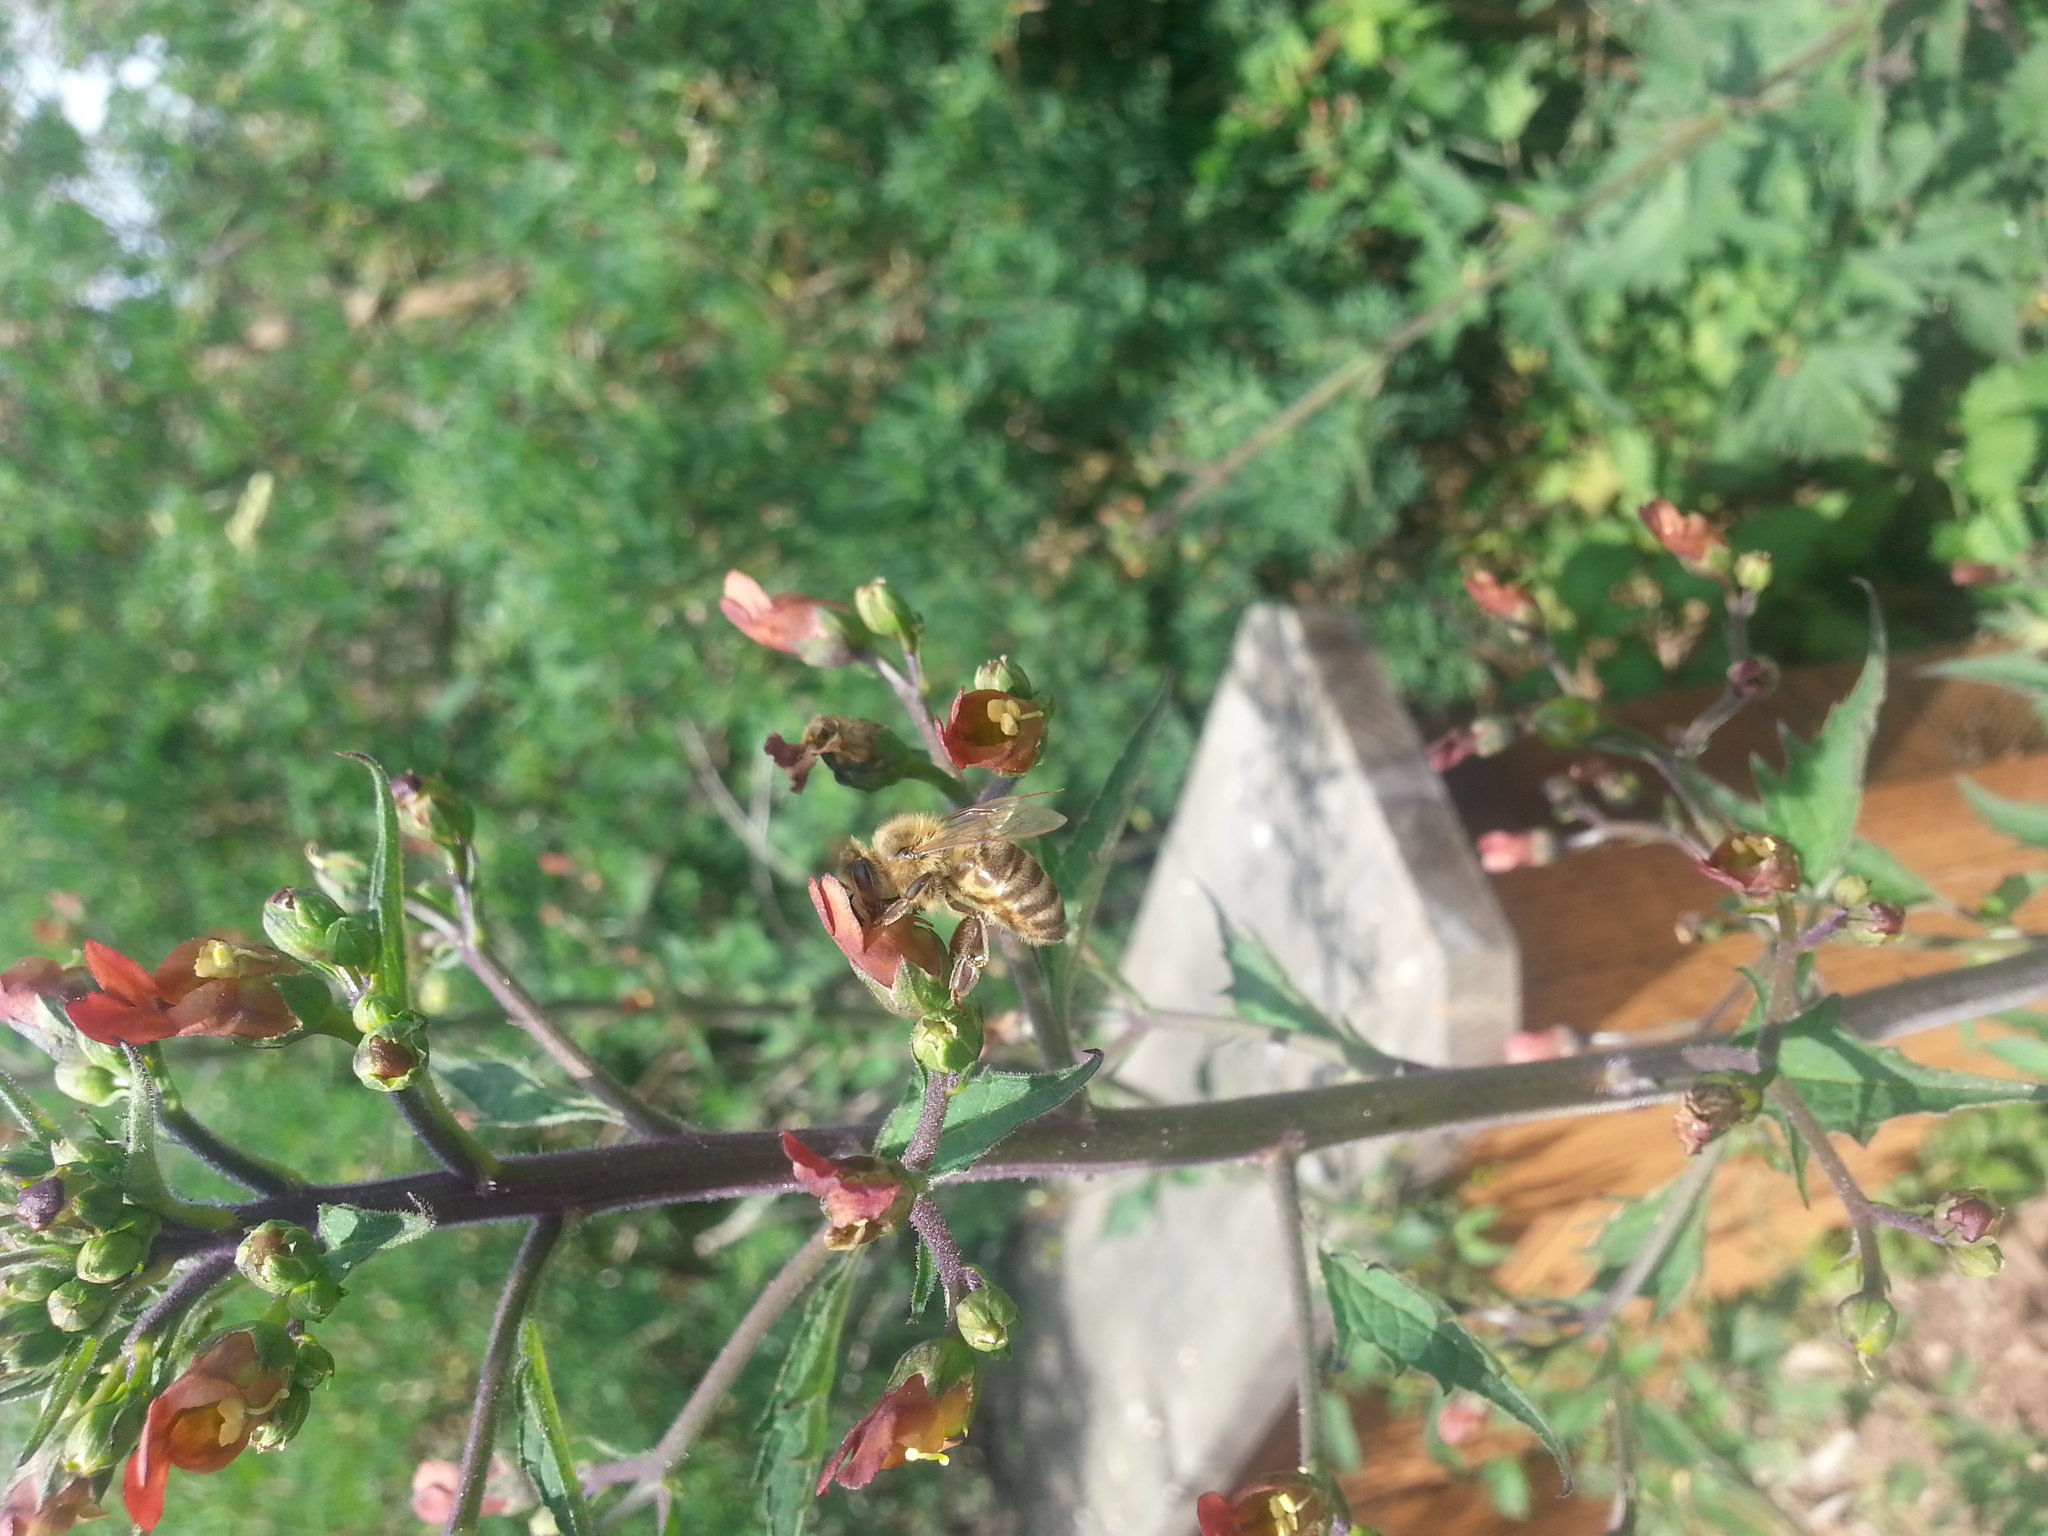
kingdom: Animalia
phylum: Arthropoda
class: Insecta
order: Hymenoptera
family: Apidae
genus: Apis
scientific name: Apis mellifera
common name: Honey bee
